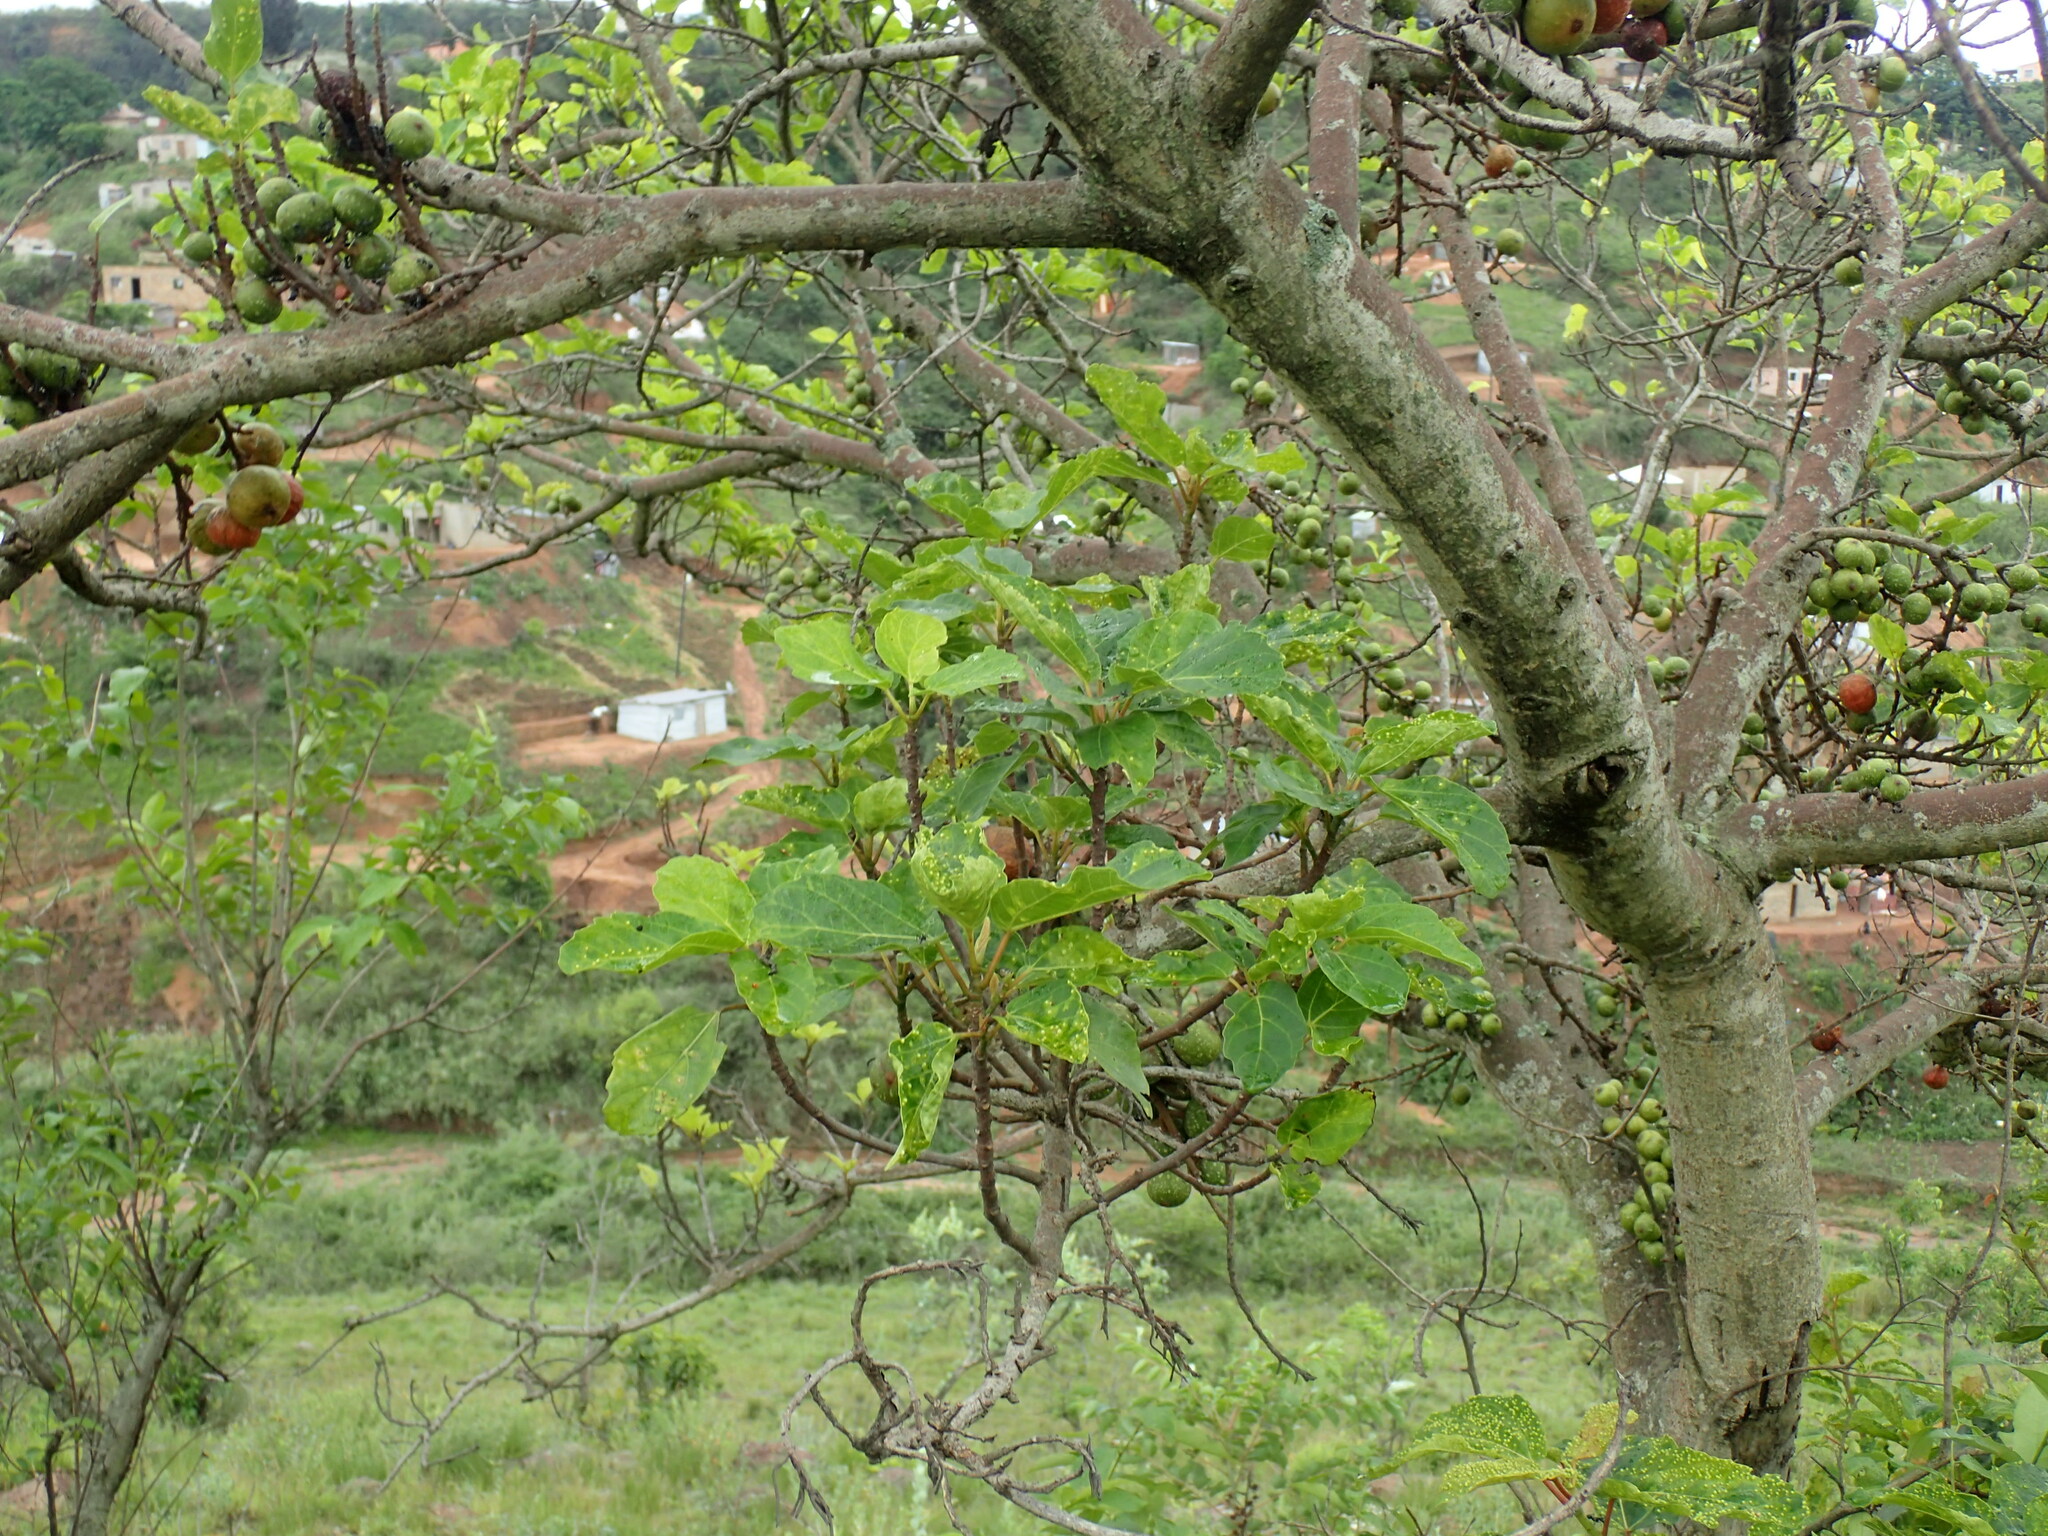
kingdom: Plantae
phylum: Tracheophyta
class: Magnoliopsida
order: Rosales
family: Moraceae
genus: Ficus
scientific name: Ficus sur
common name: Cape fig
